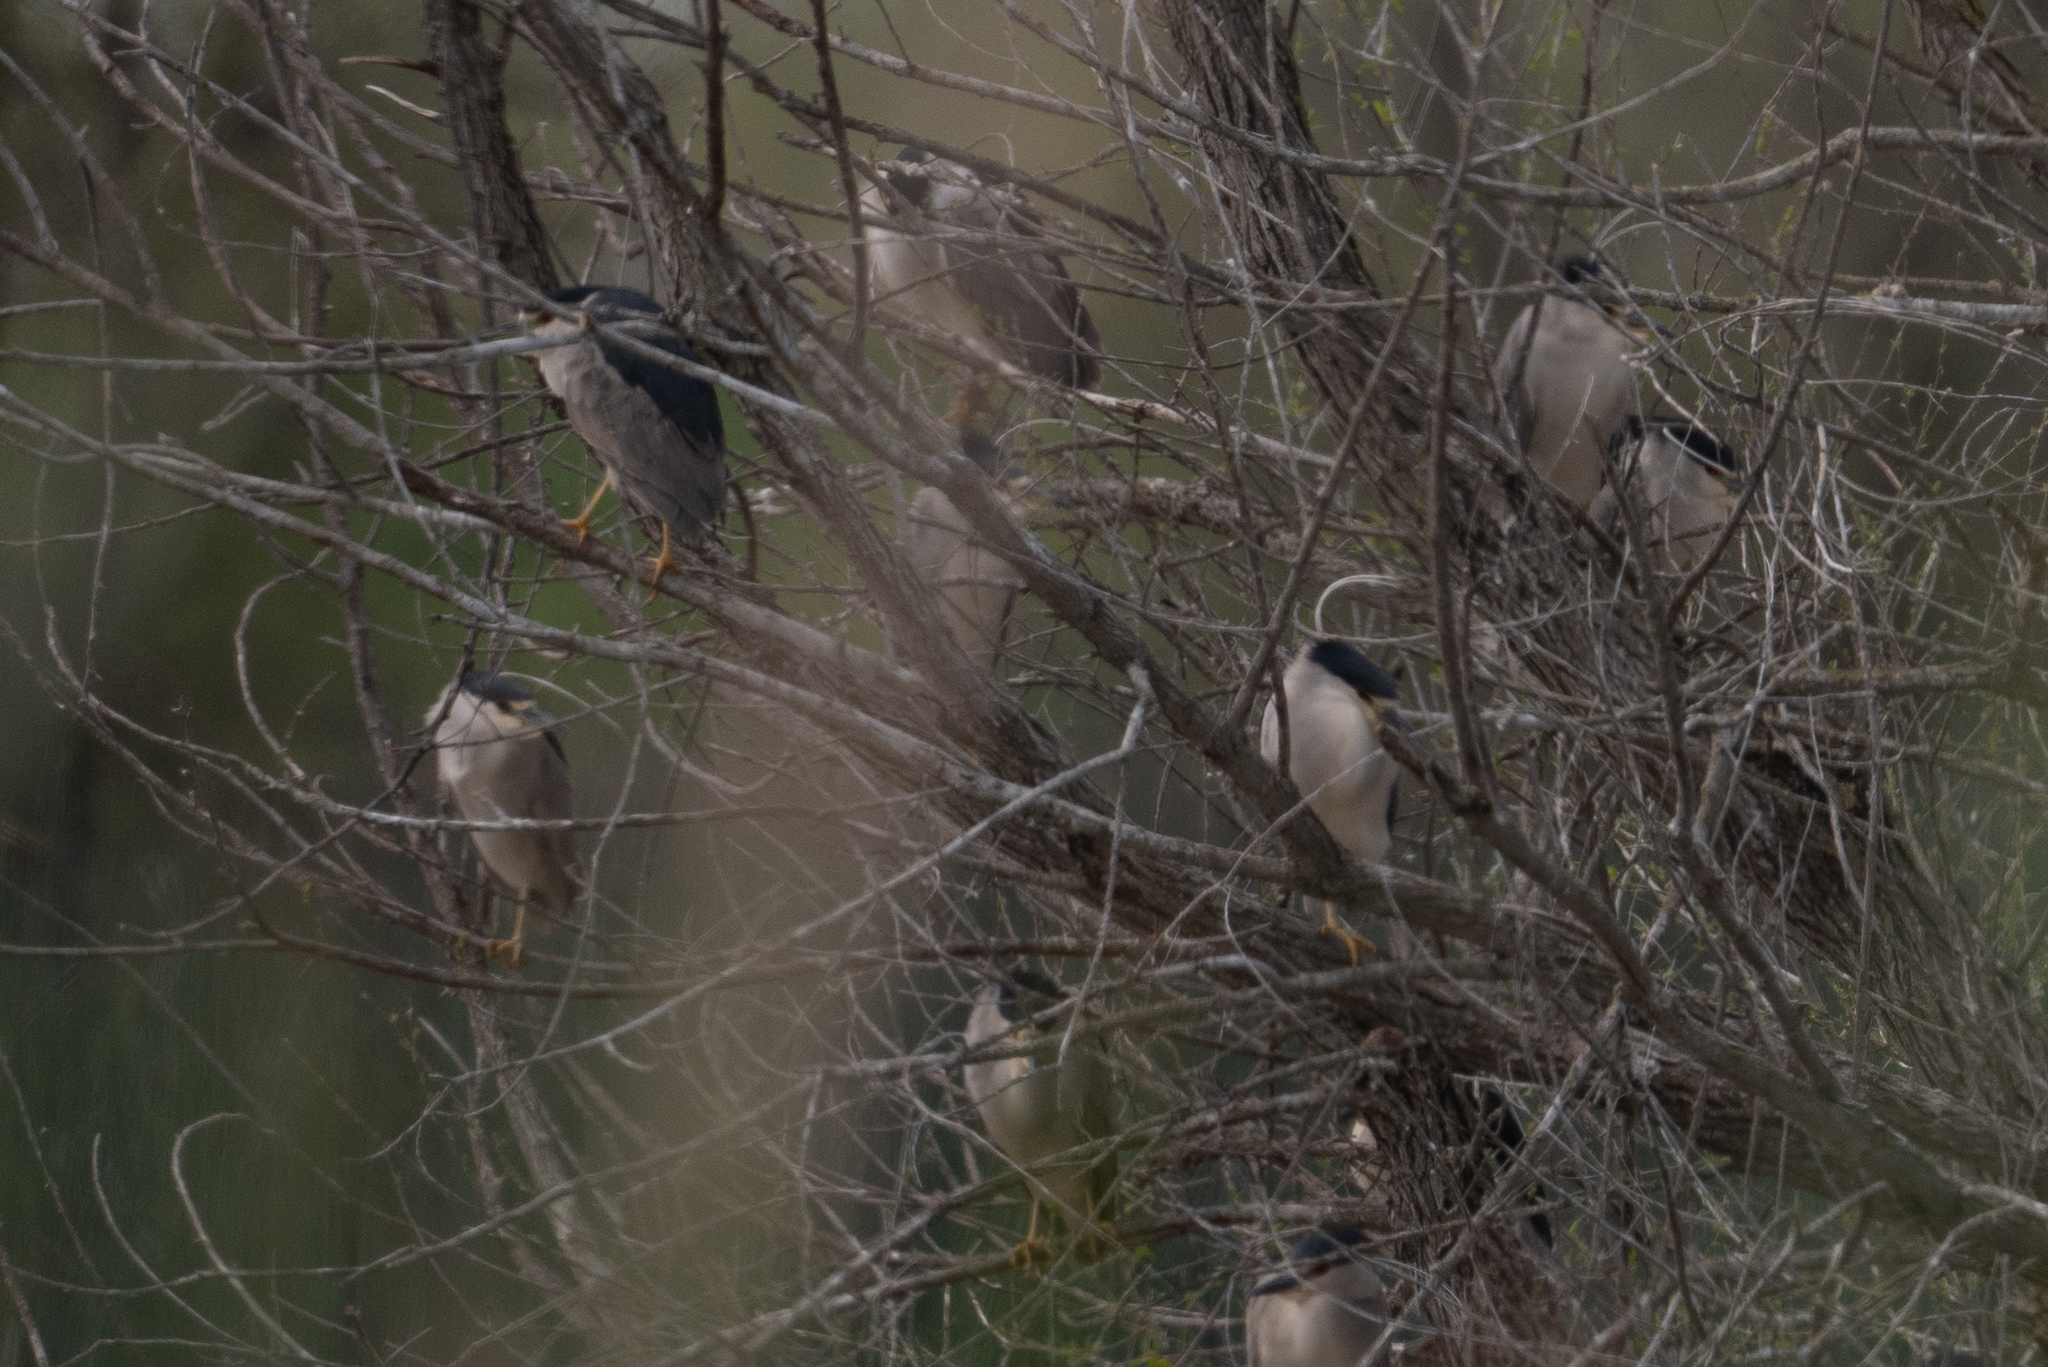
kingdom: Animalia
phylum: Chordata
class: Aves
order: Pelecaniformes
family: Ardeidae
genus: Nycticorax
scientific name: Nycticorax nycticorax
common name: Black-crowned night heron
